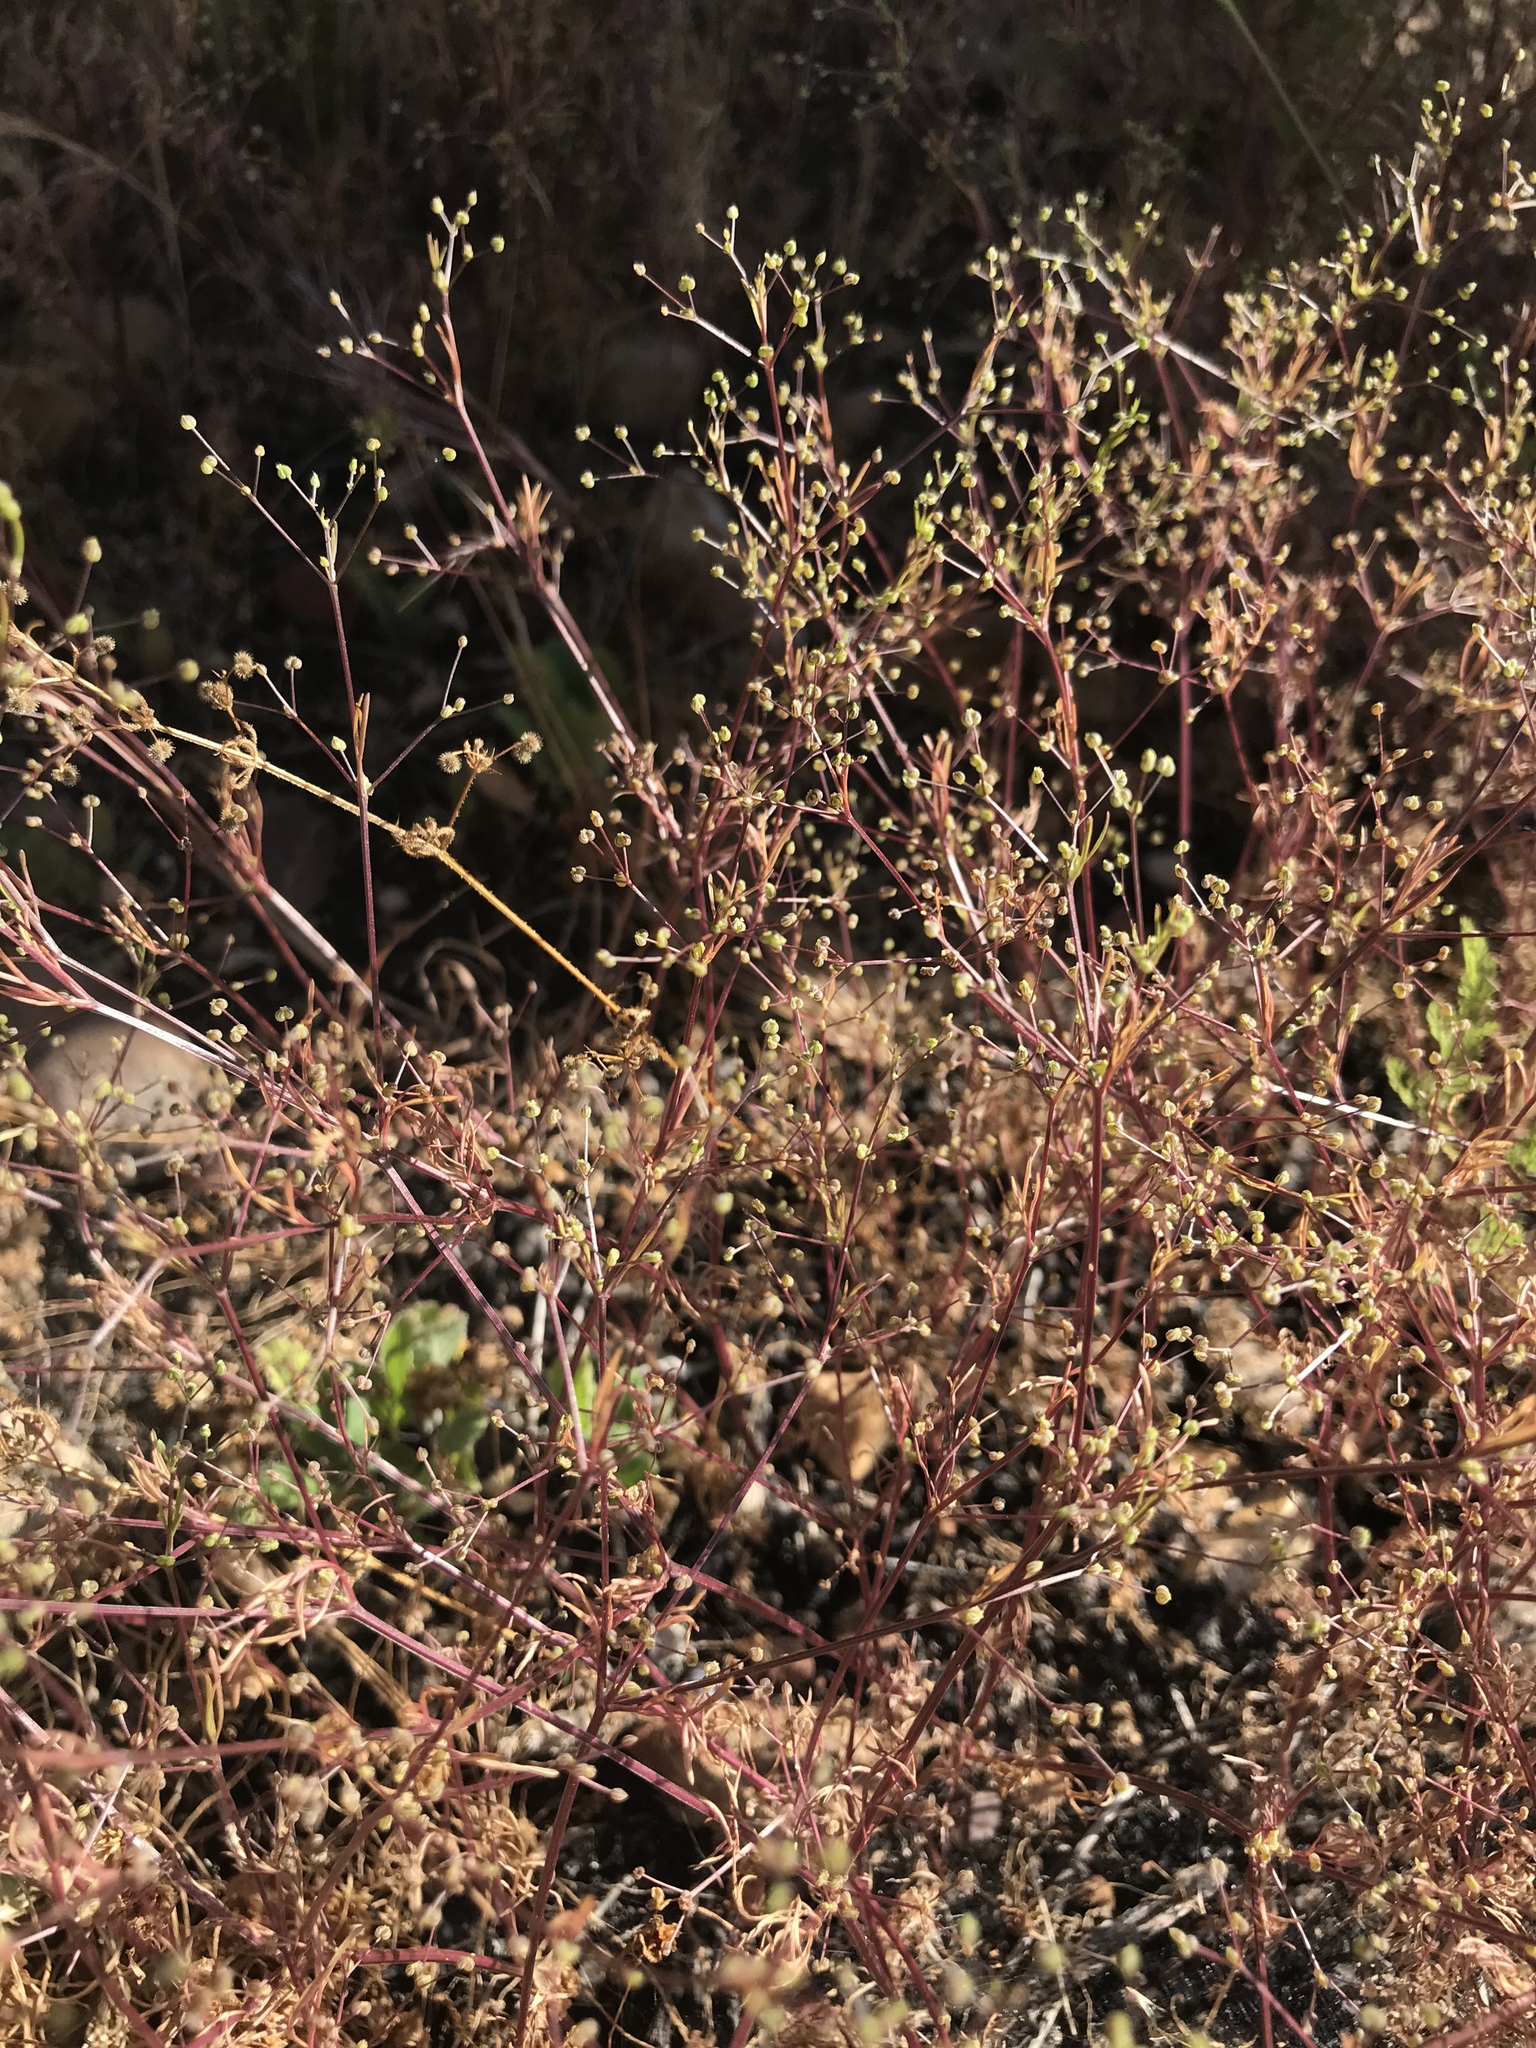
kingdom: Plantae
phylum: Tracheophyta
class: Magnoliopsida
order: Apiales
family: Apiaceae
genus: Apiastrum
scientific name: Apiastrum angustifolium
